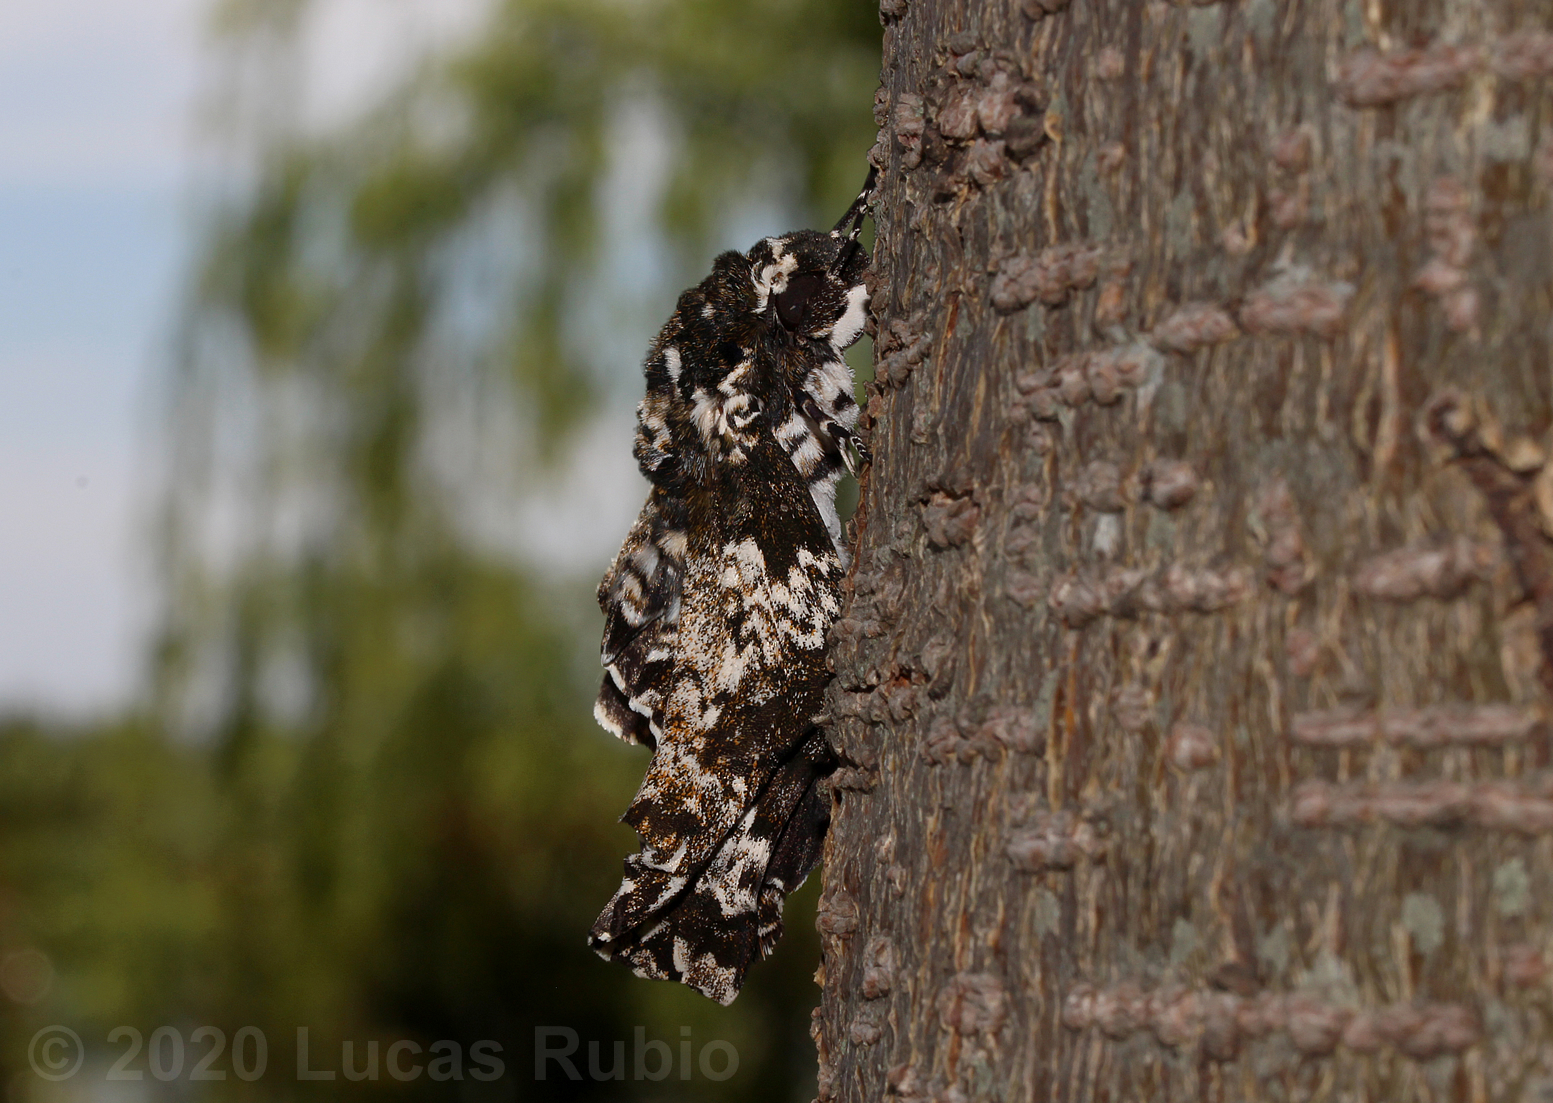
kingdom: Animalia
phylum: Arthropoda
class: Insecta
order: Lepidoptera
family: Sphingidae
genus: Manduca
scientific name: Manduca rustica
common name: Rustic sphinx
